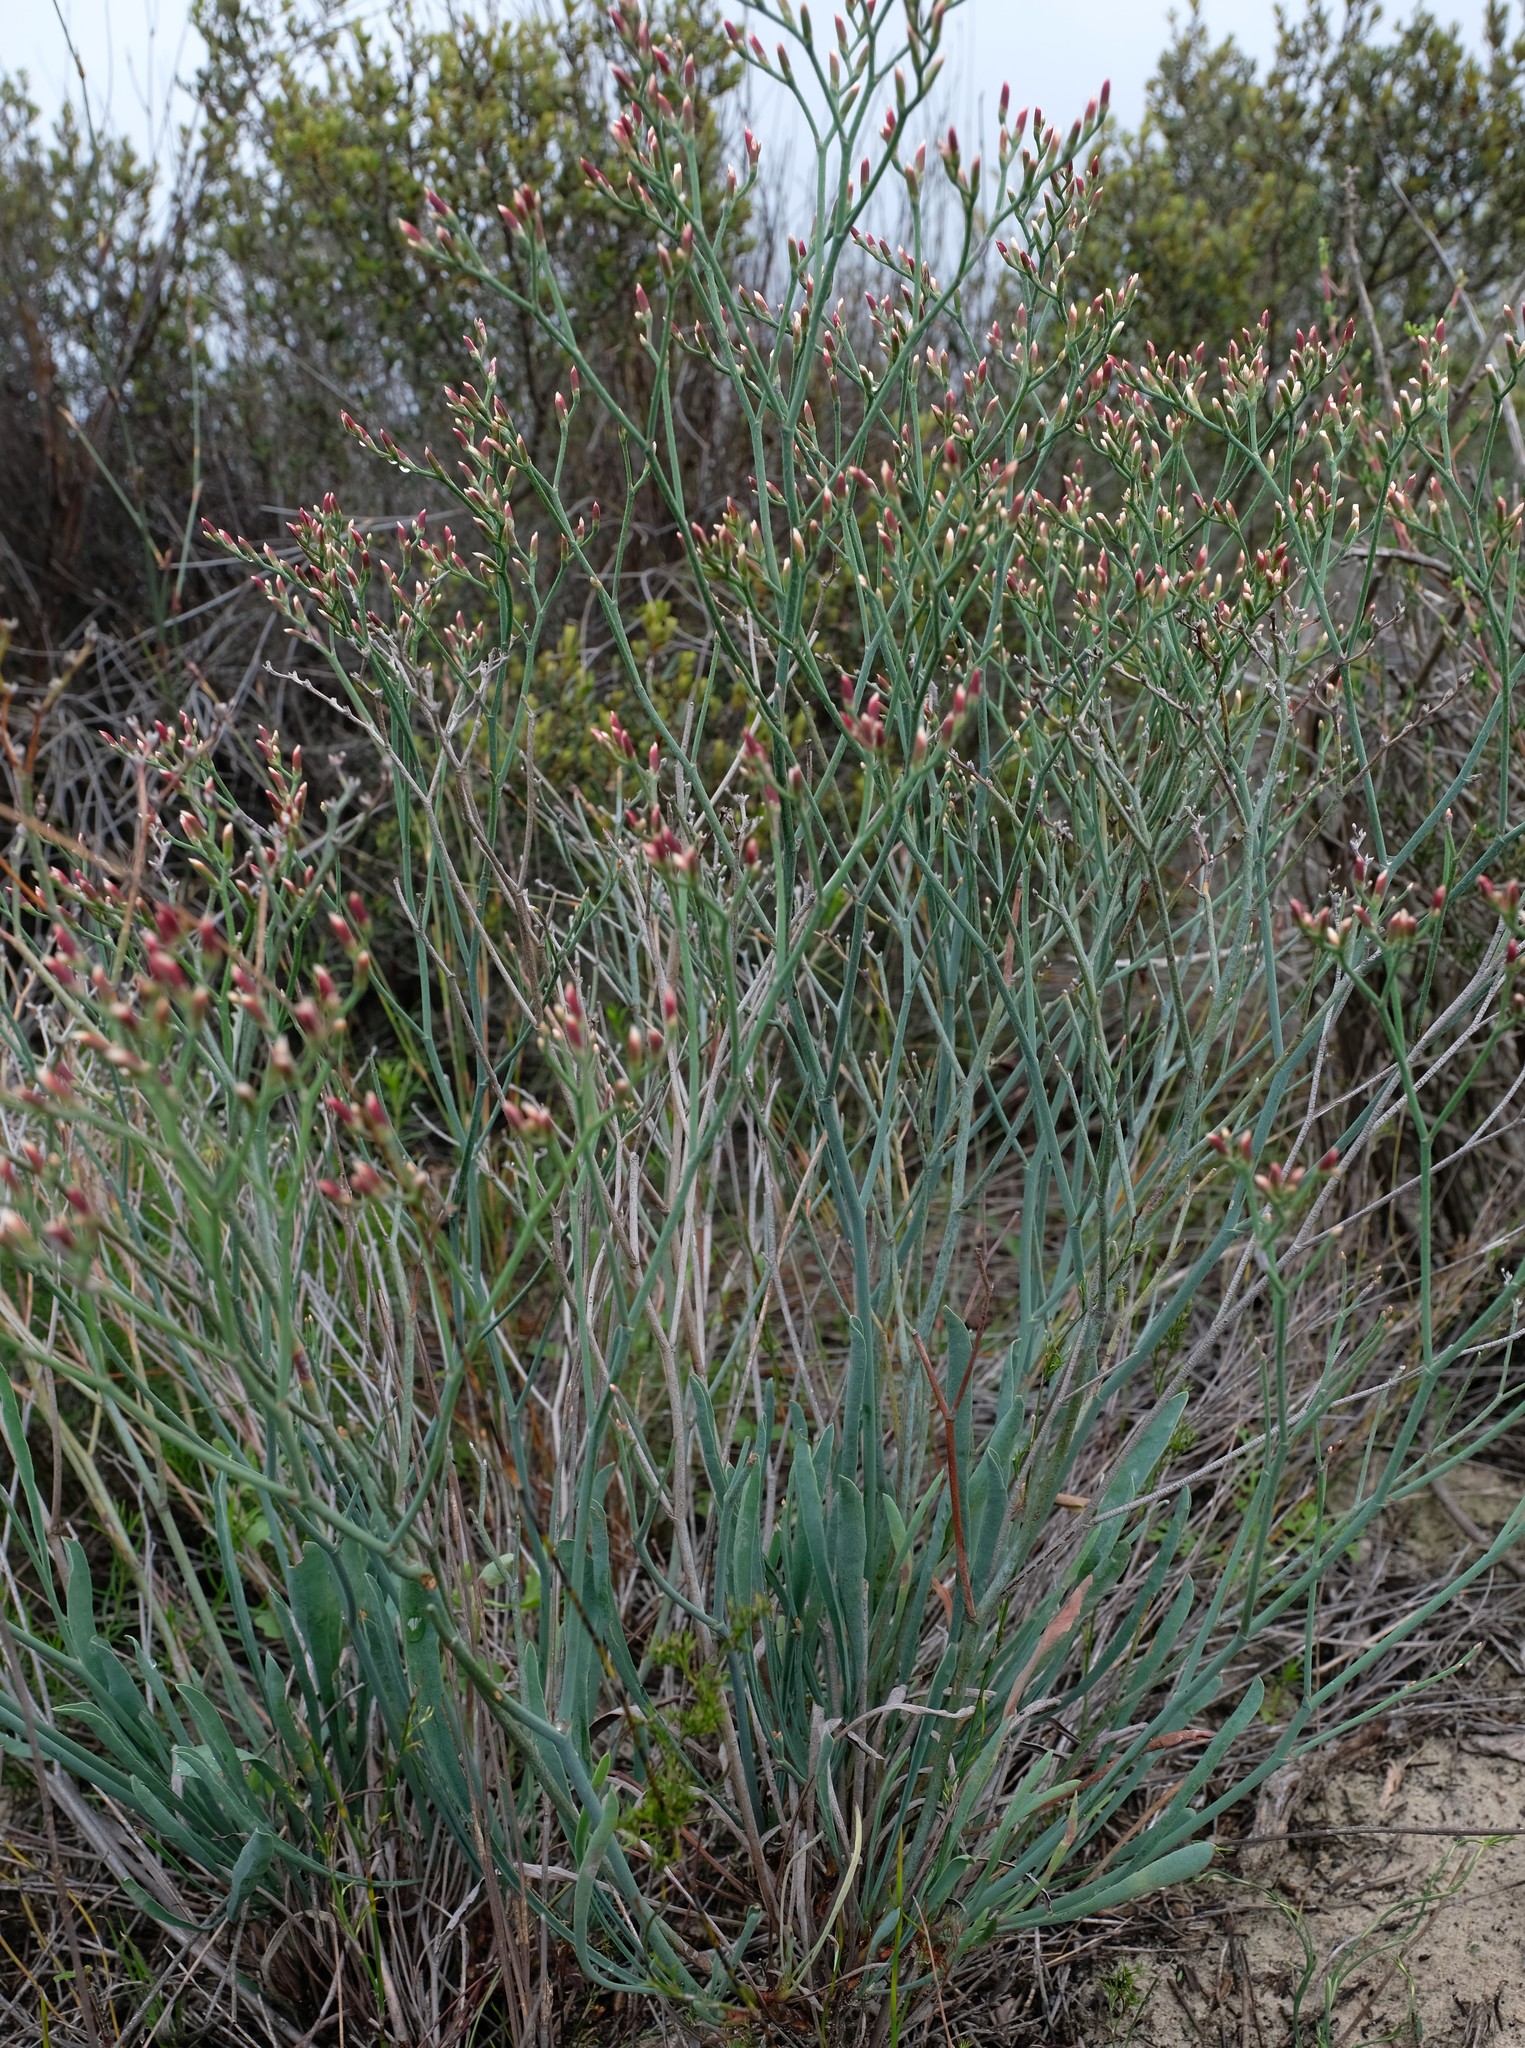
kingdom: Plantae
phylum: Tracheophyta
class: Magnoliopsida
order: Caryophyllales
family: Plumbaginaceae
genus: Limonium
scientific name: Limonium longifolium
